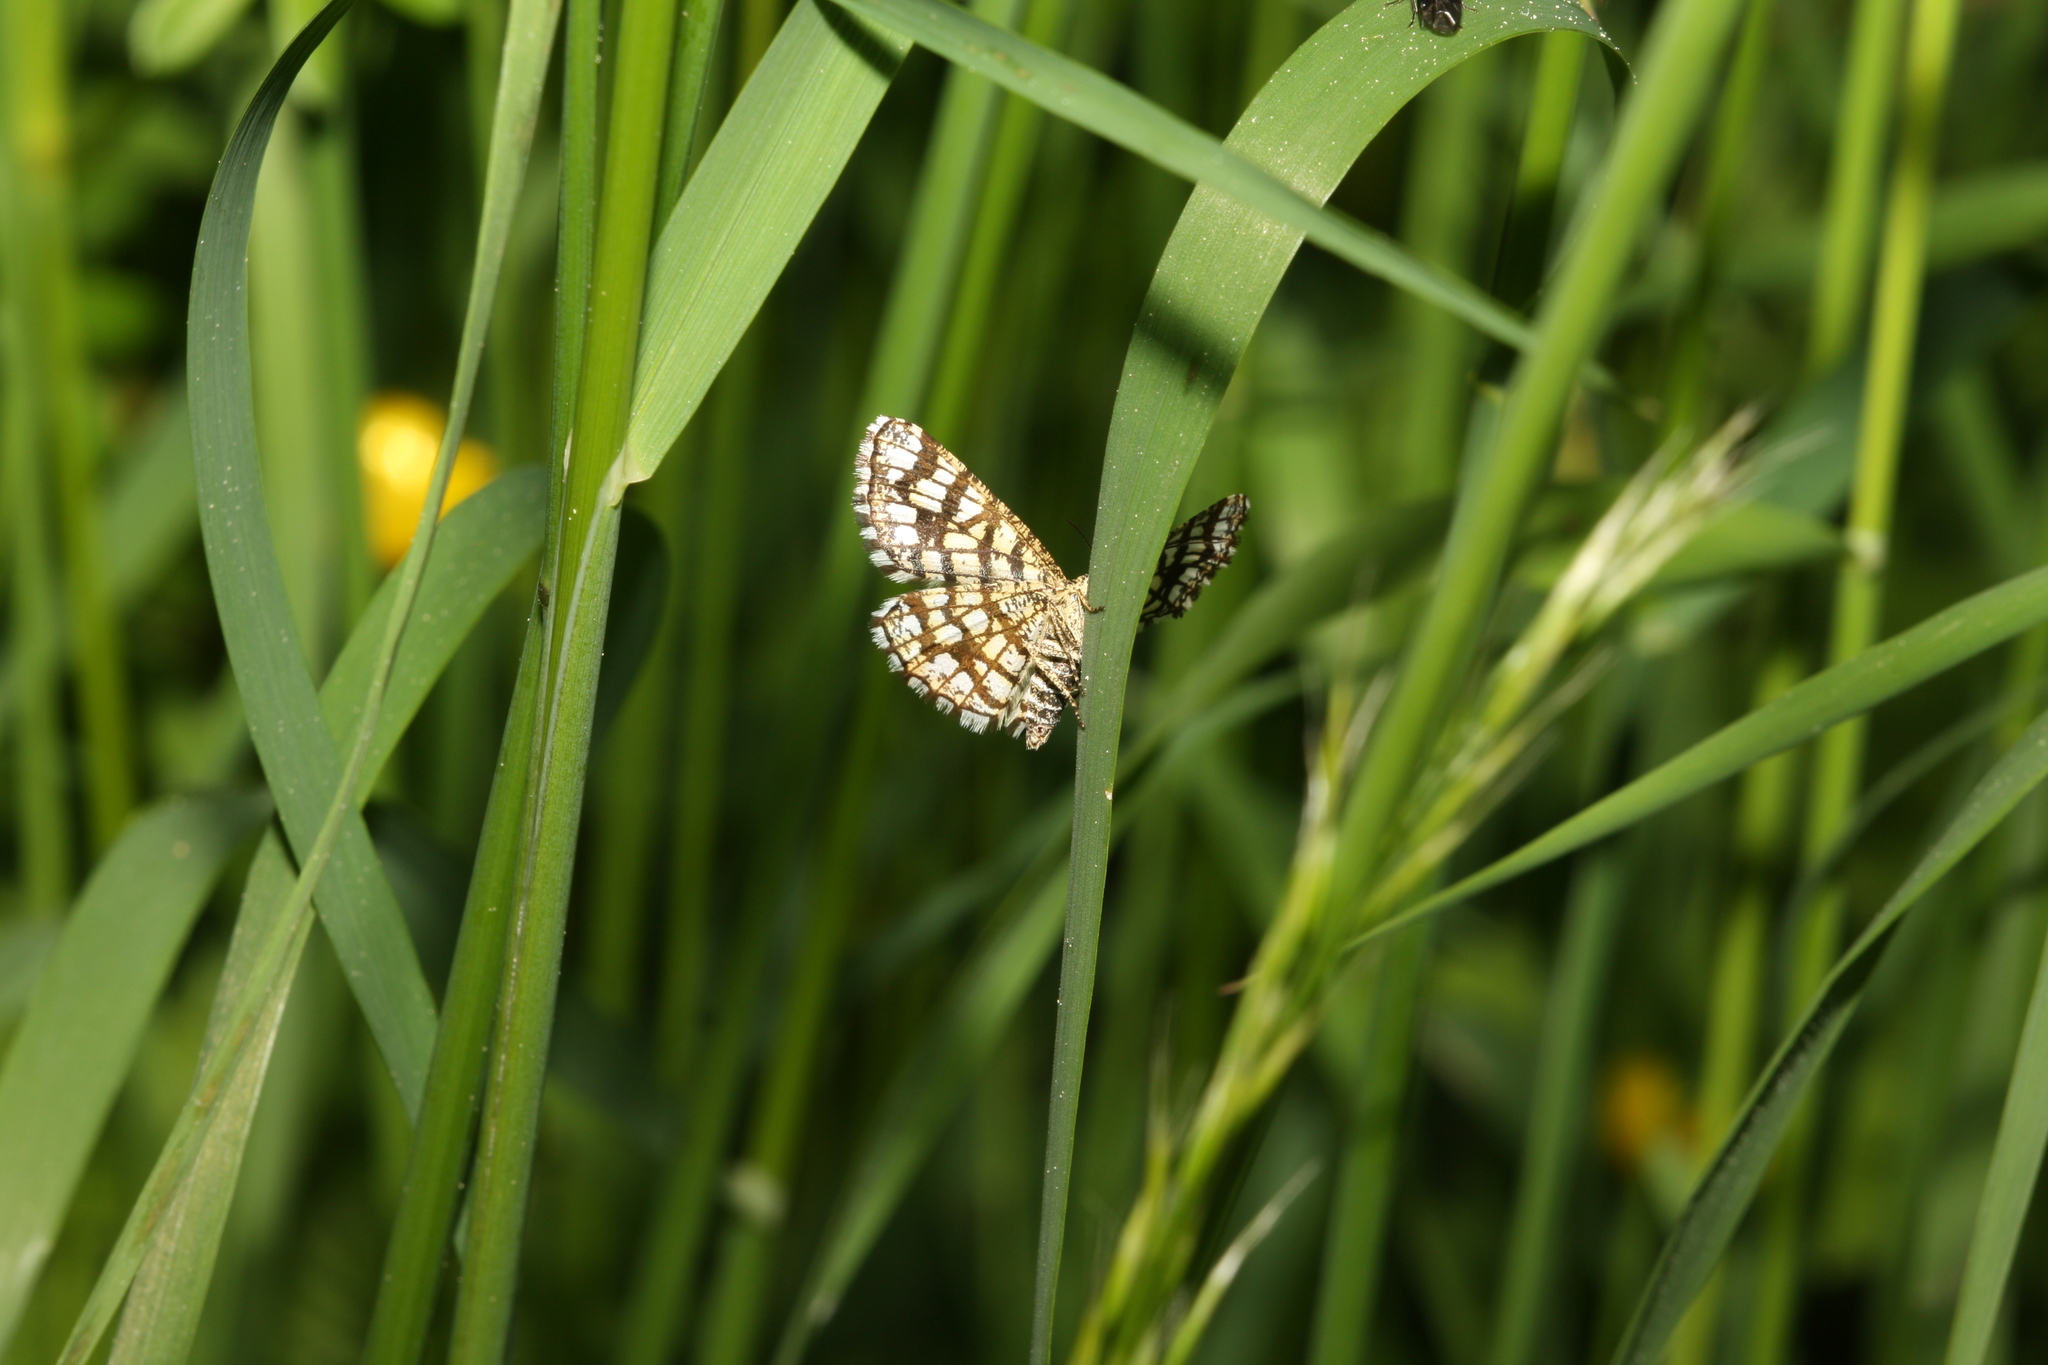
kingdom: Animalia
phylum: Arthropoda
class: Insecta
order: Lepidoptera
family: Geometridae
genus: Chiasmia
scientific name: Chiasmia clathrata
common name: Latticed heath
